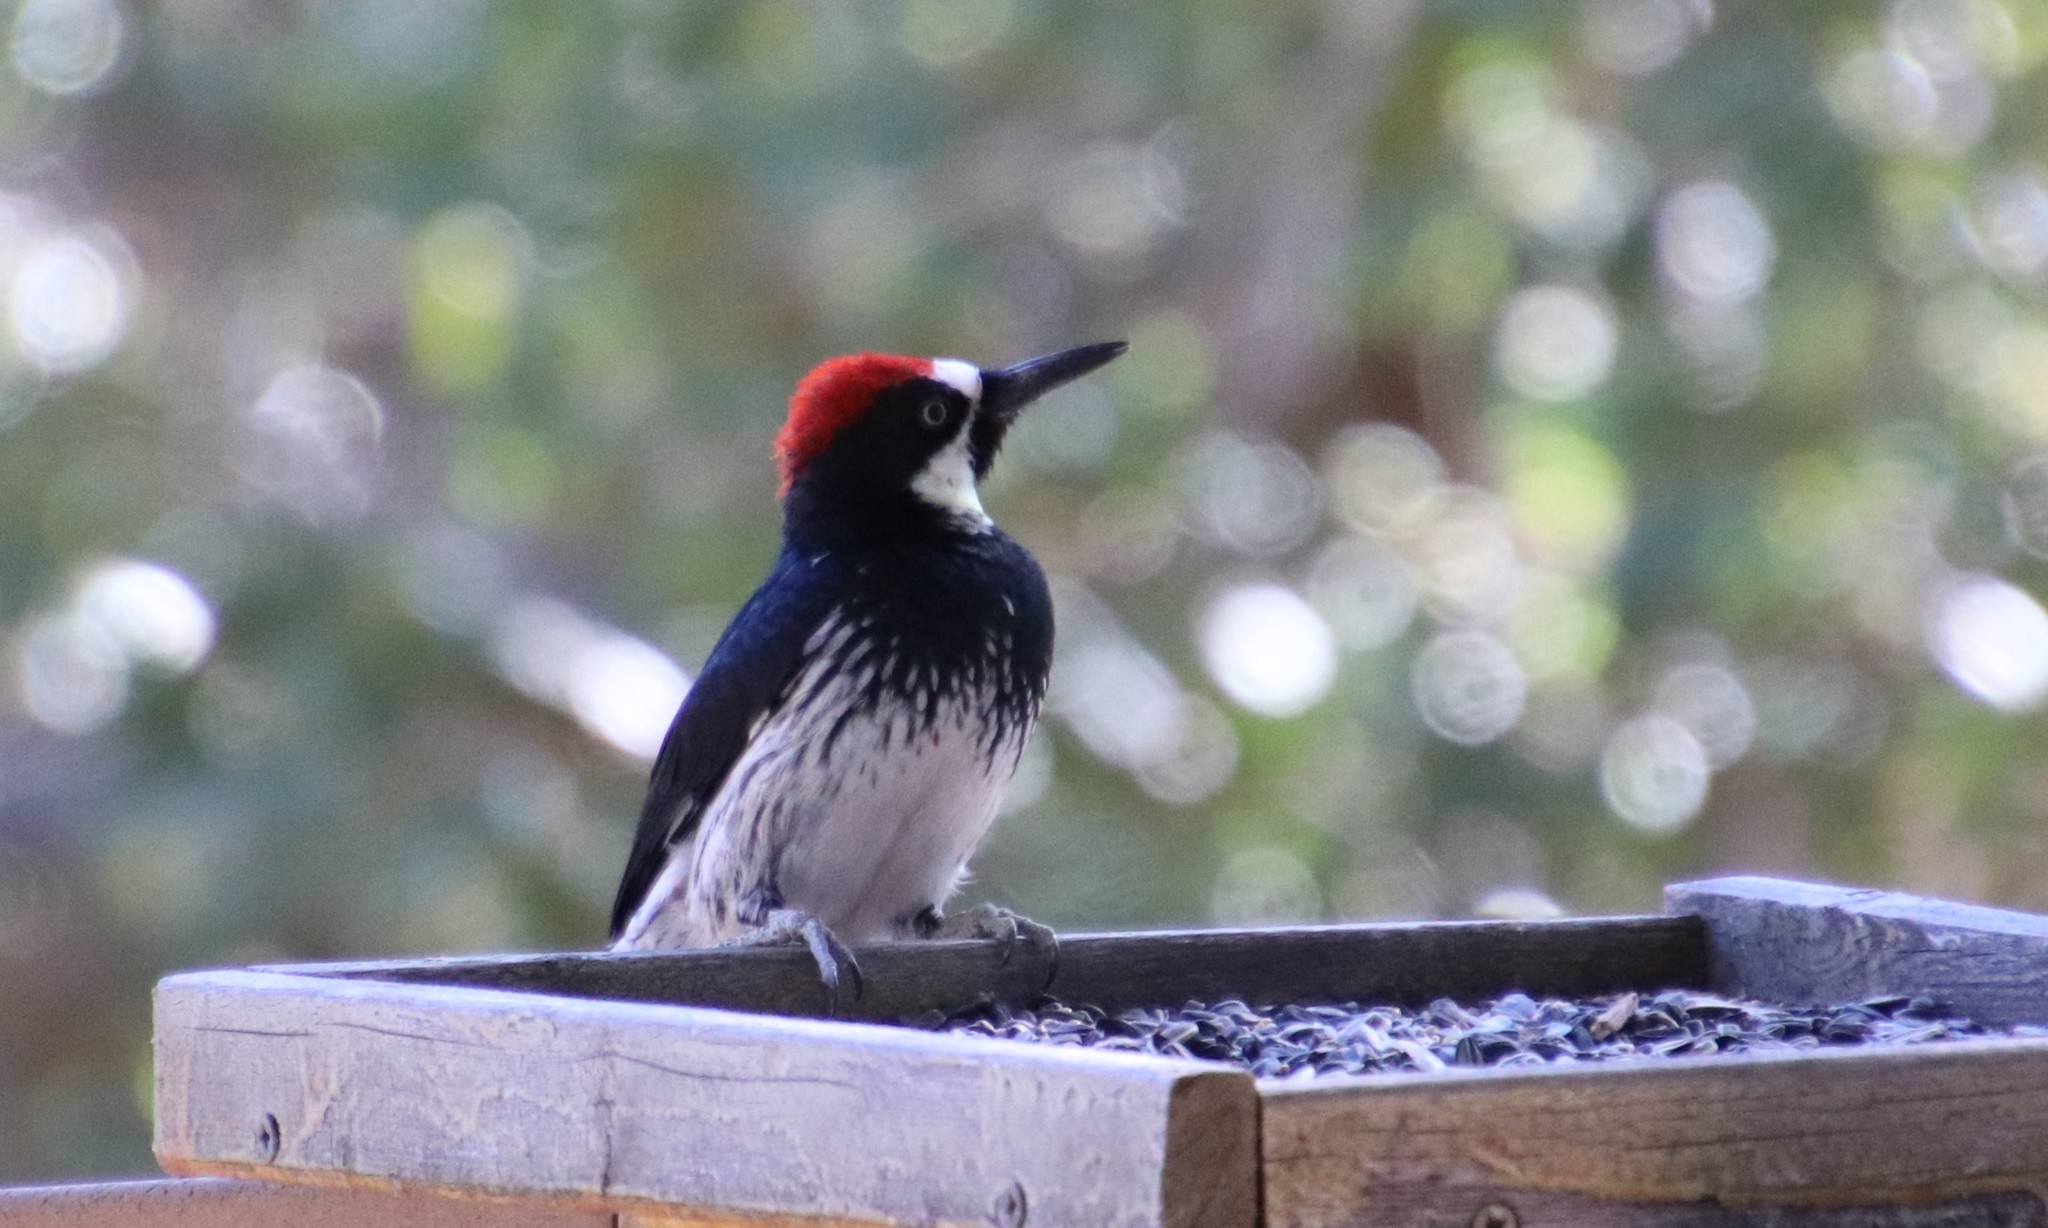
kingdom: Animalia
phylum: Chordata
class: Aves
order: Piciformes
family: Picidae
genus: Melanerpes
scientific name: Melanerpes formicivorus
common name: Acorn woodpecker
